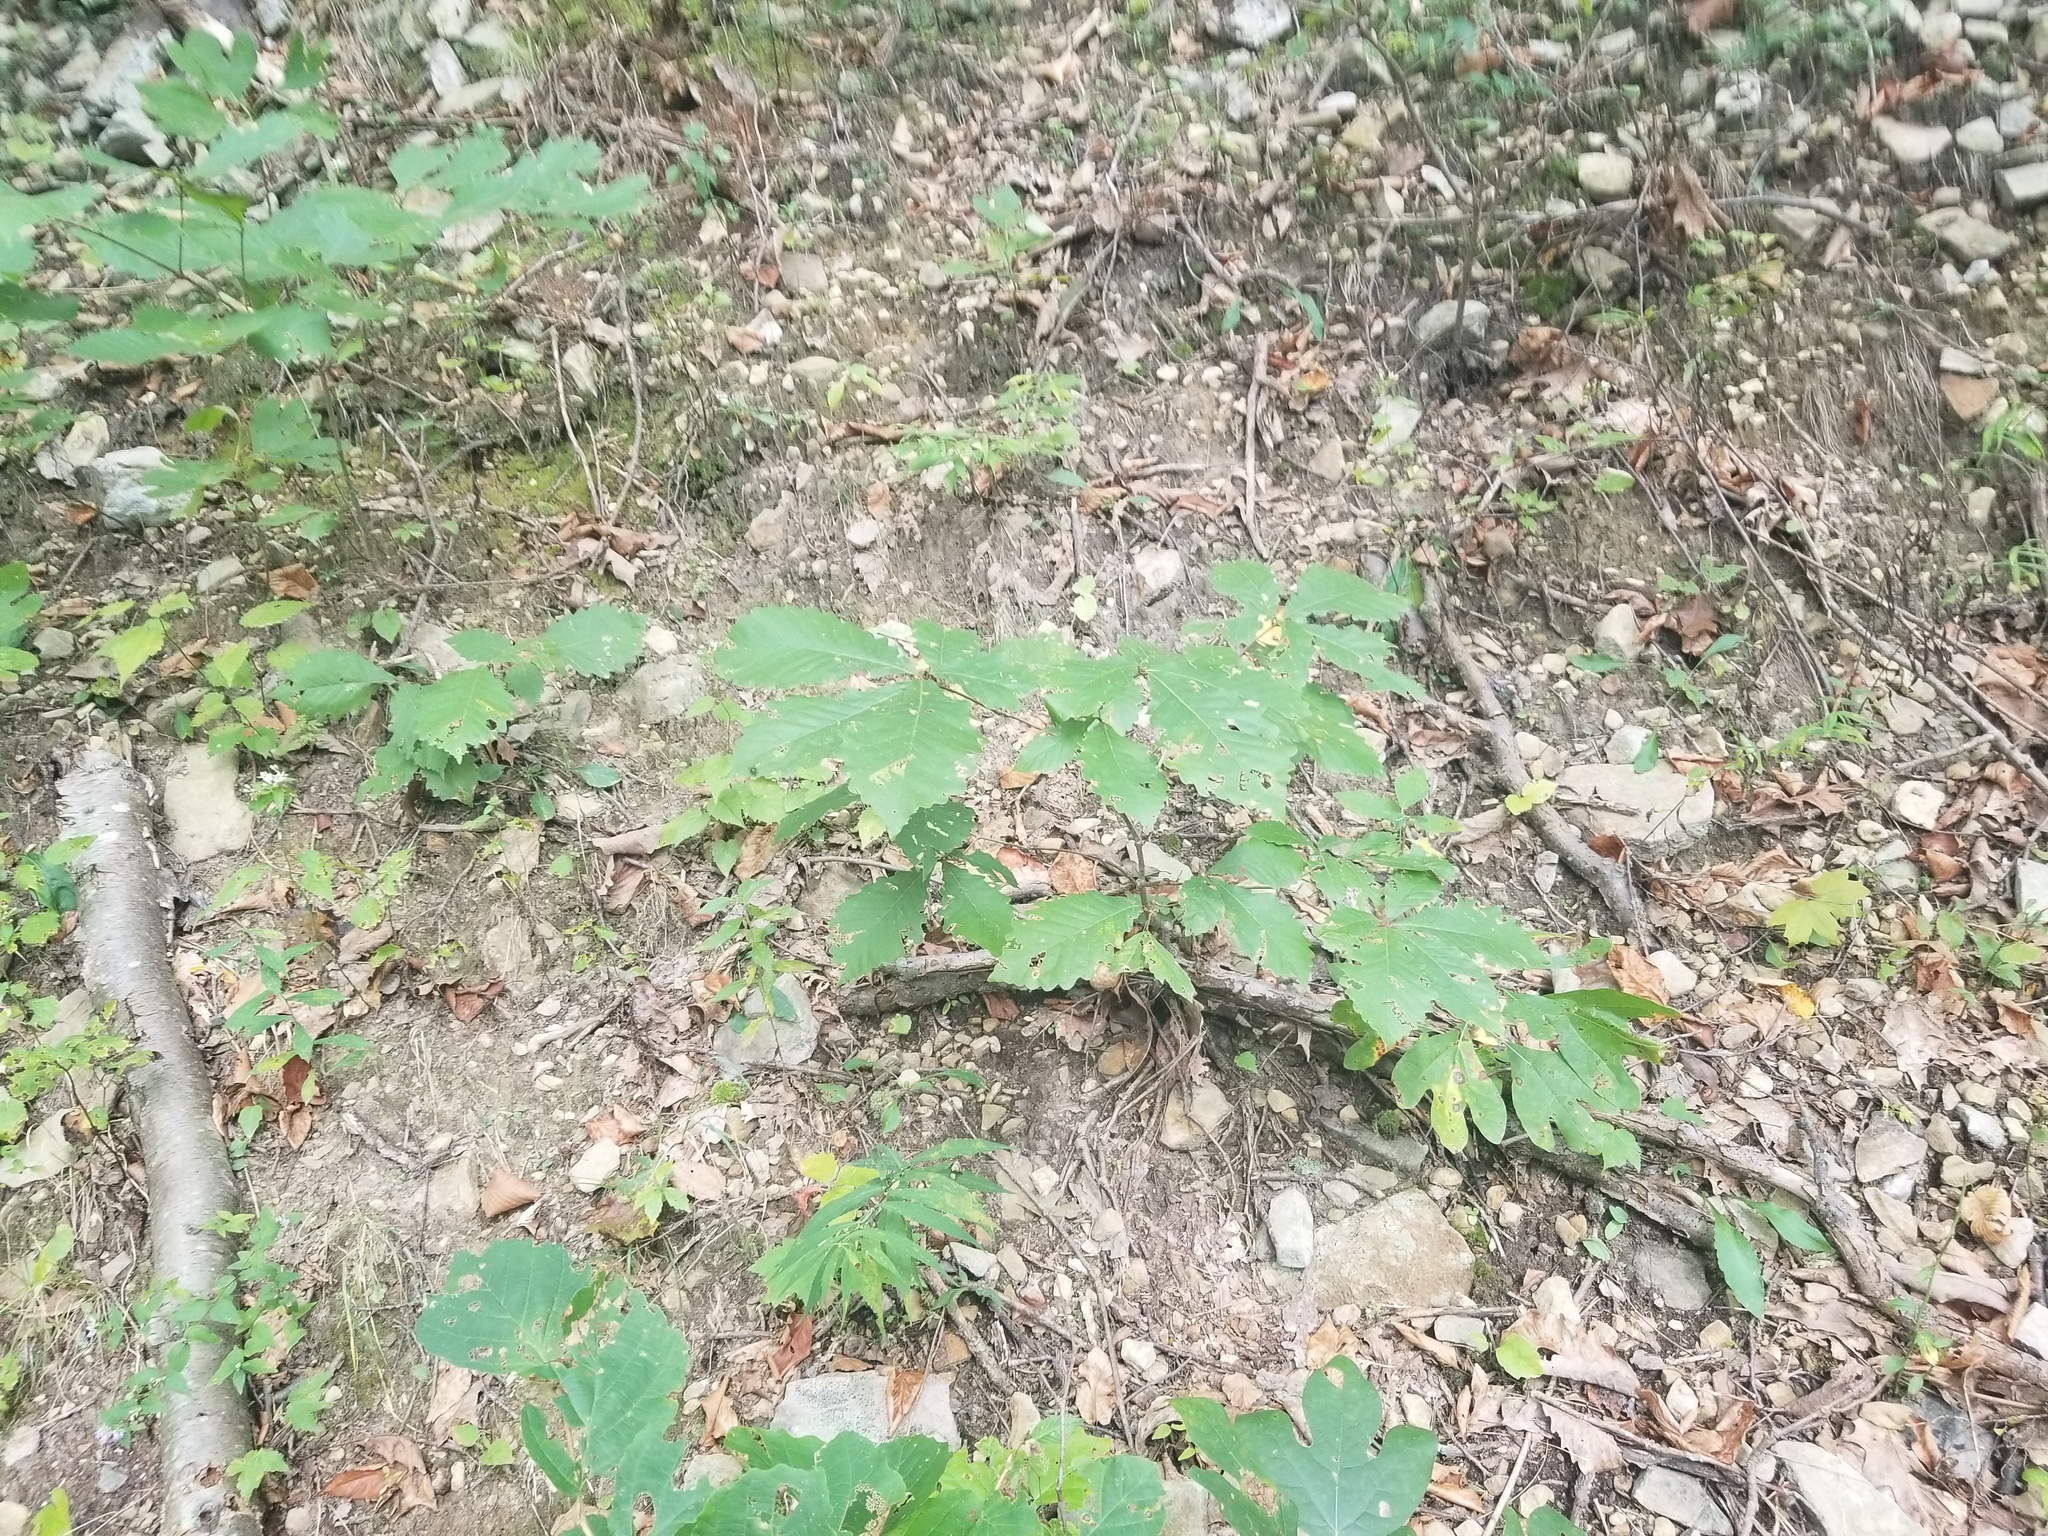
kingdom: Plantae
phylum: Tracheophyta
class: Magnoliopsida
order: Fagales
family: Fagaceae
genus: Quercus
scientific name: Quercus montana
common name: Chestnut oak
